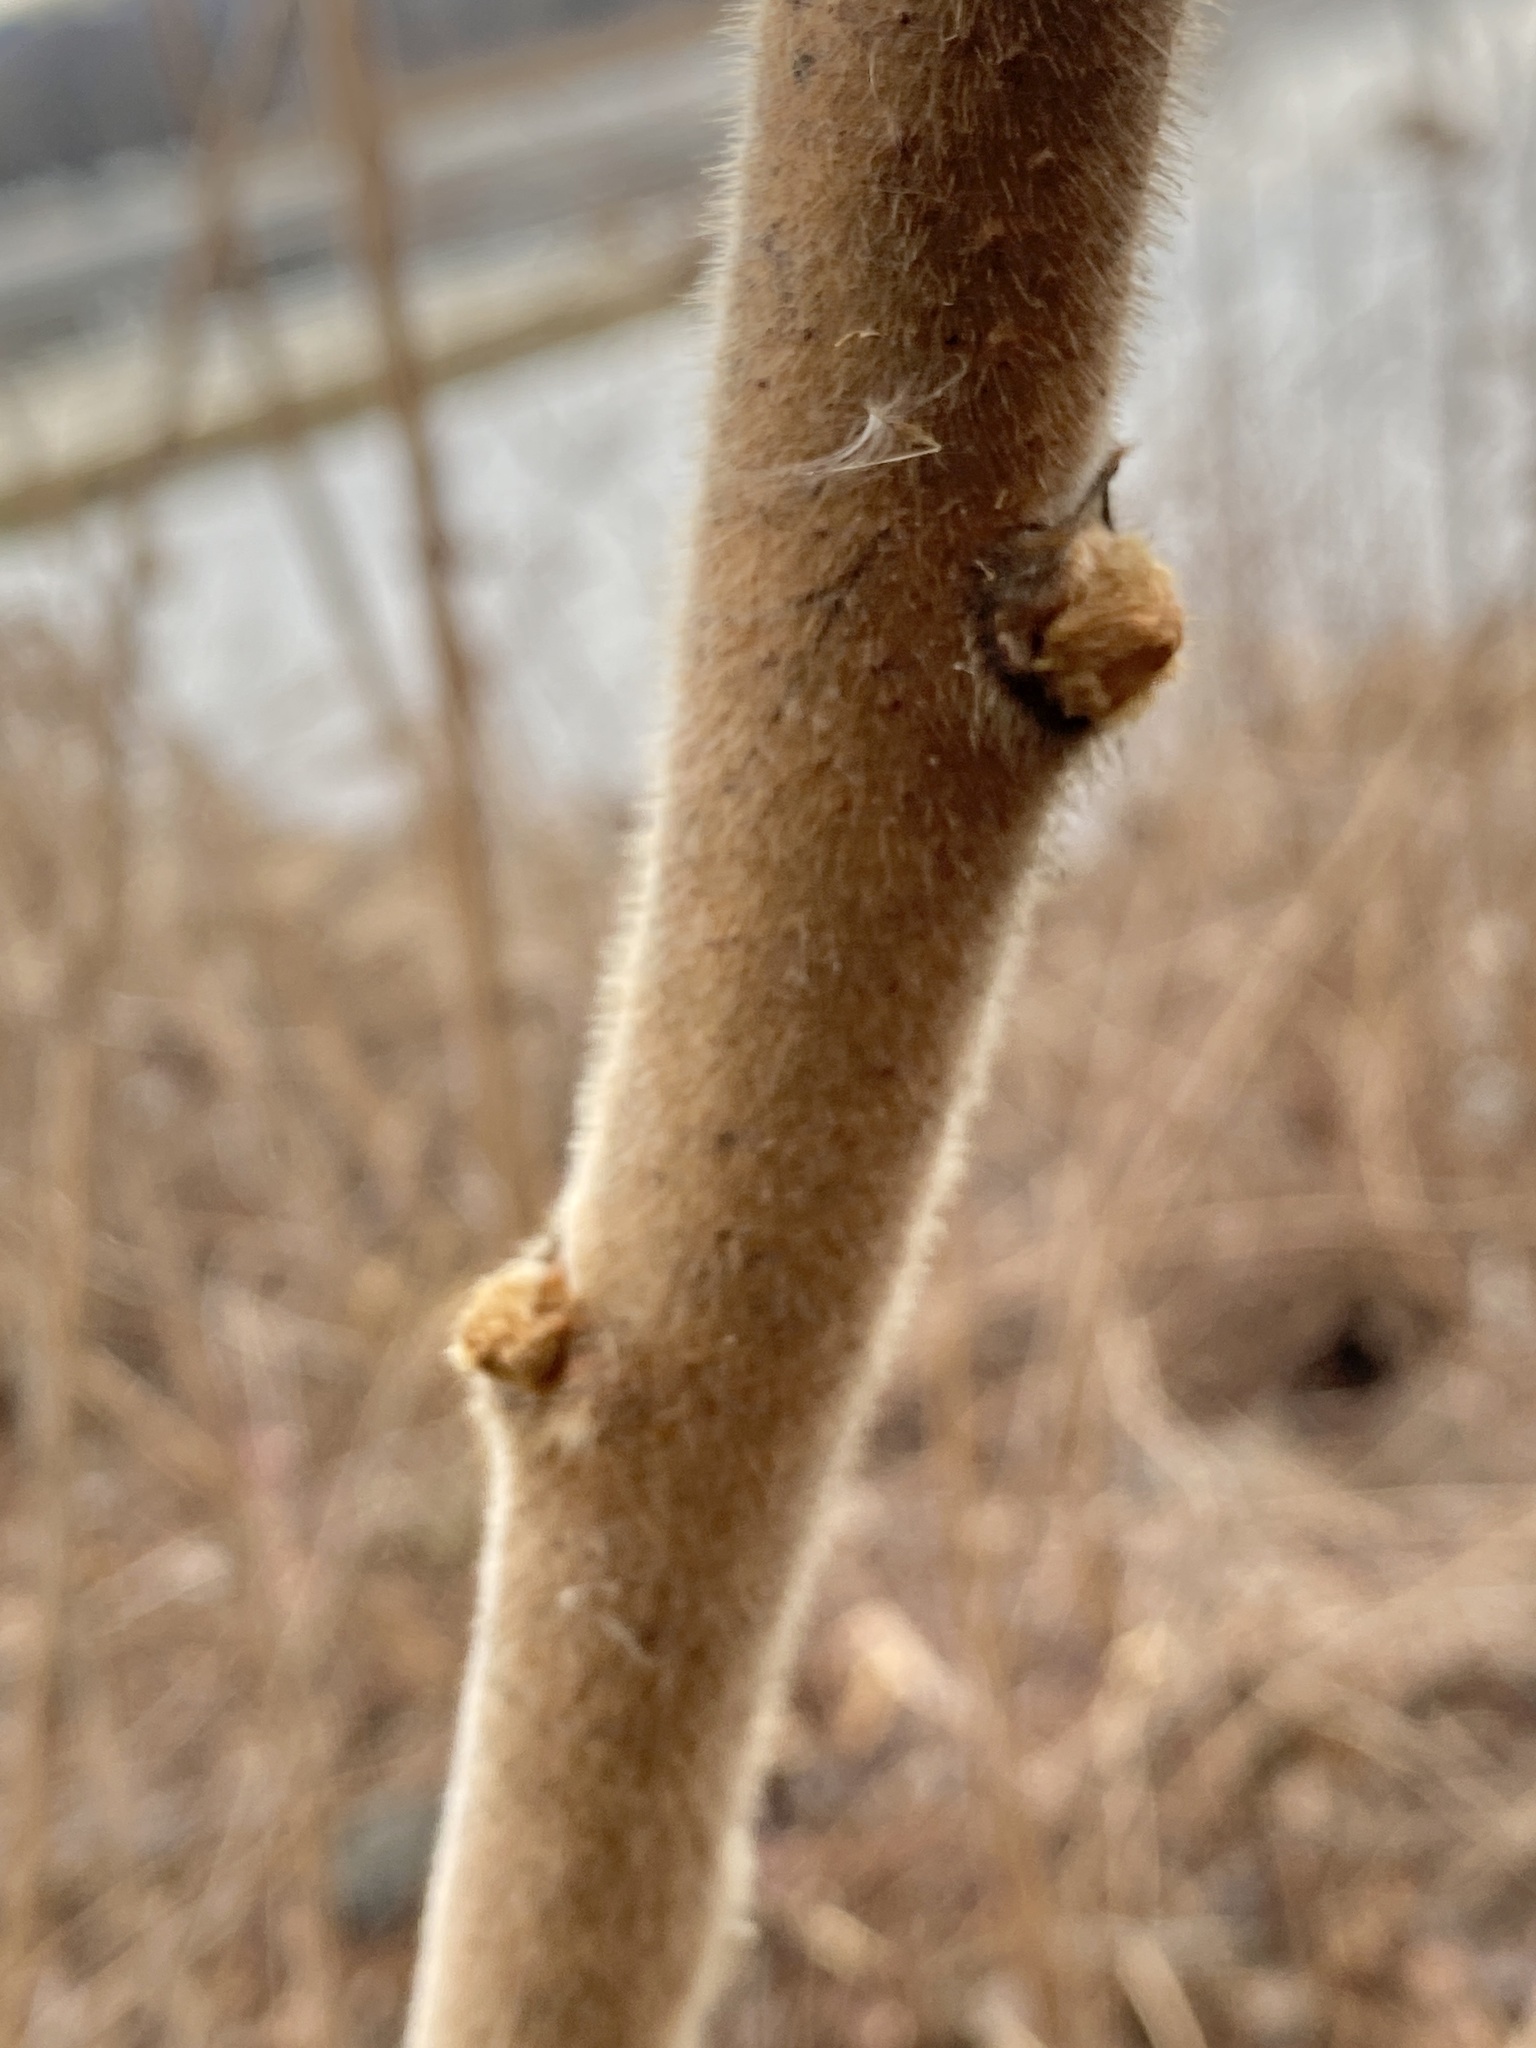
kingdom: Plantae
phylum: Tracheophyta
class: Magnoliopsida
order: Sapindales
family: Anacardiaceae
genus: Rhus
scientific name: Rhus typhina
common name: Staghorn sumac
